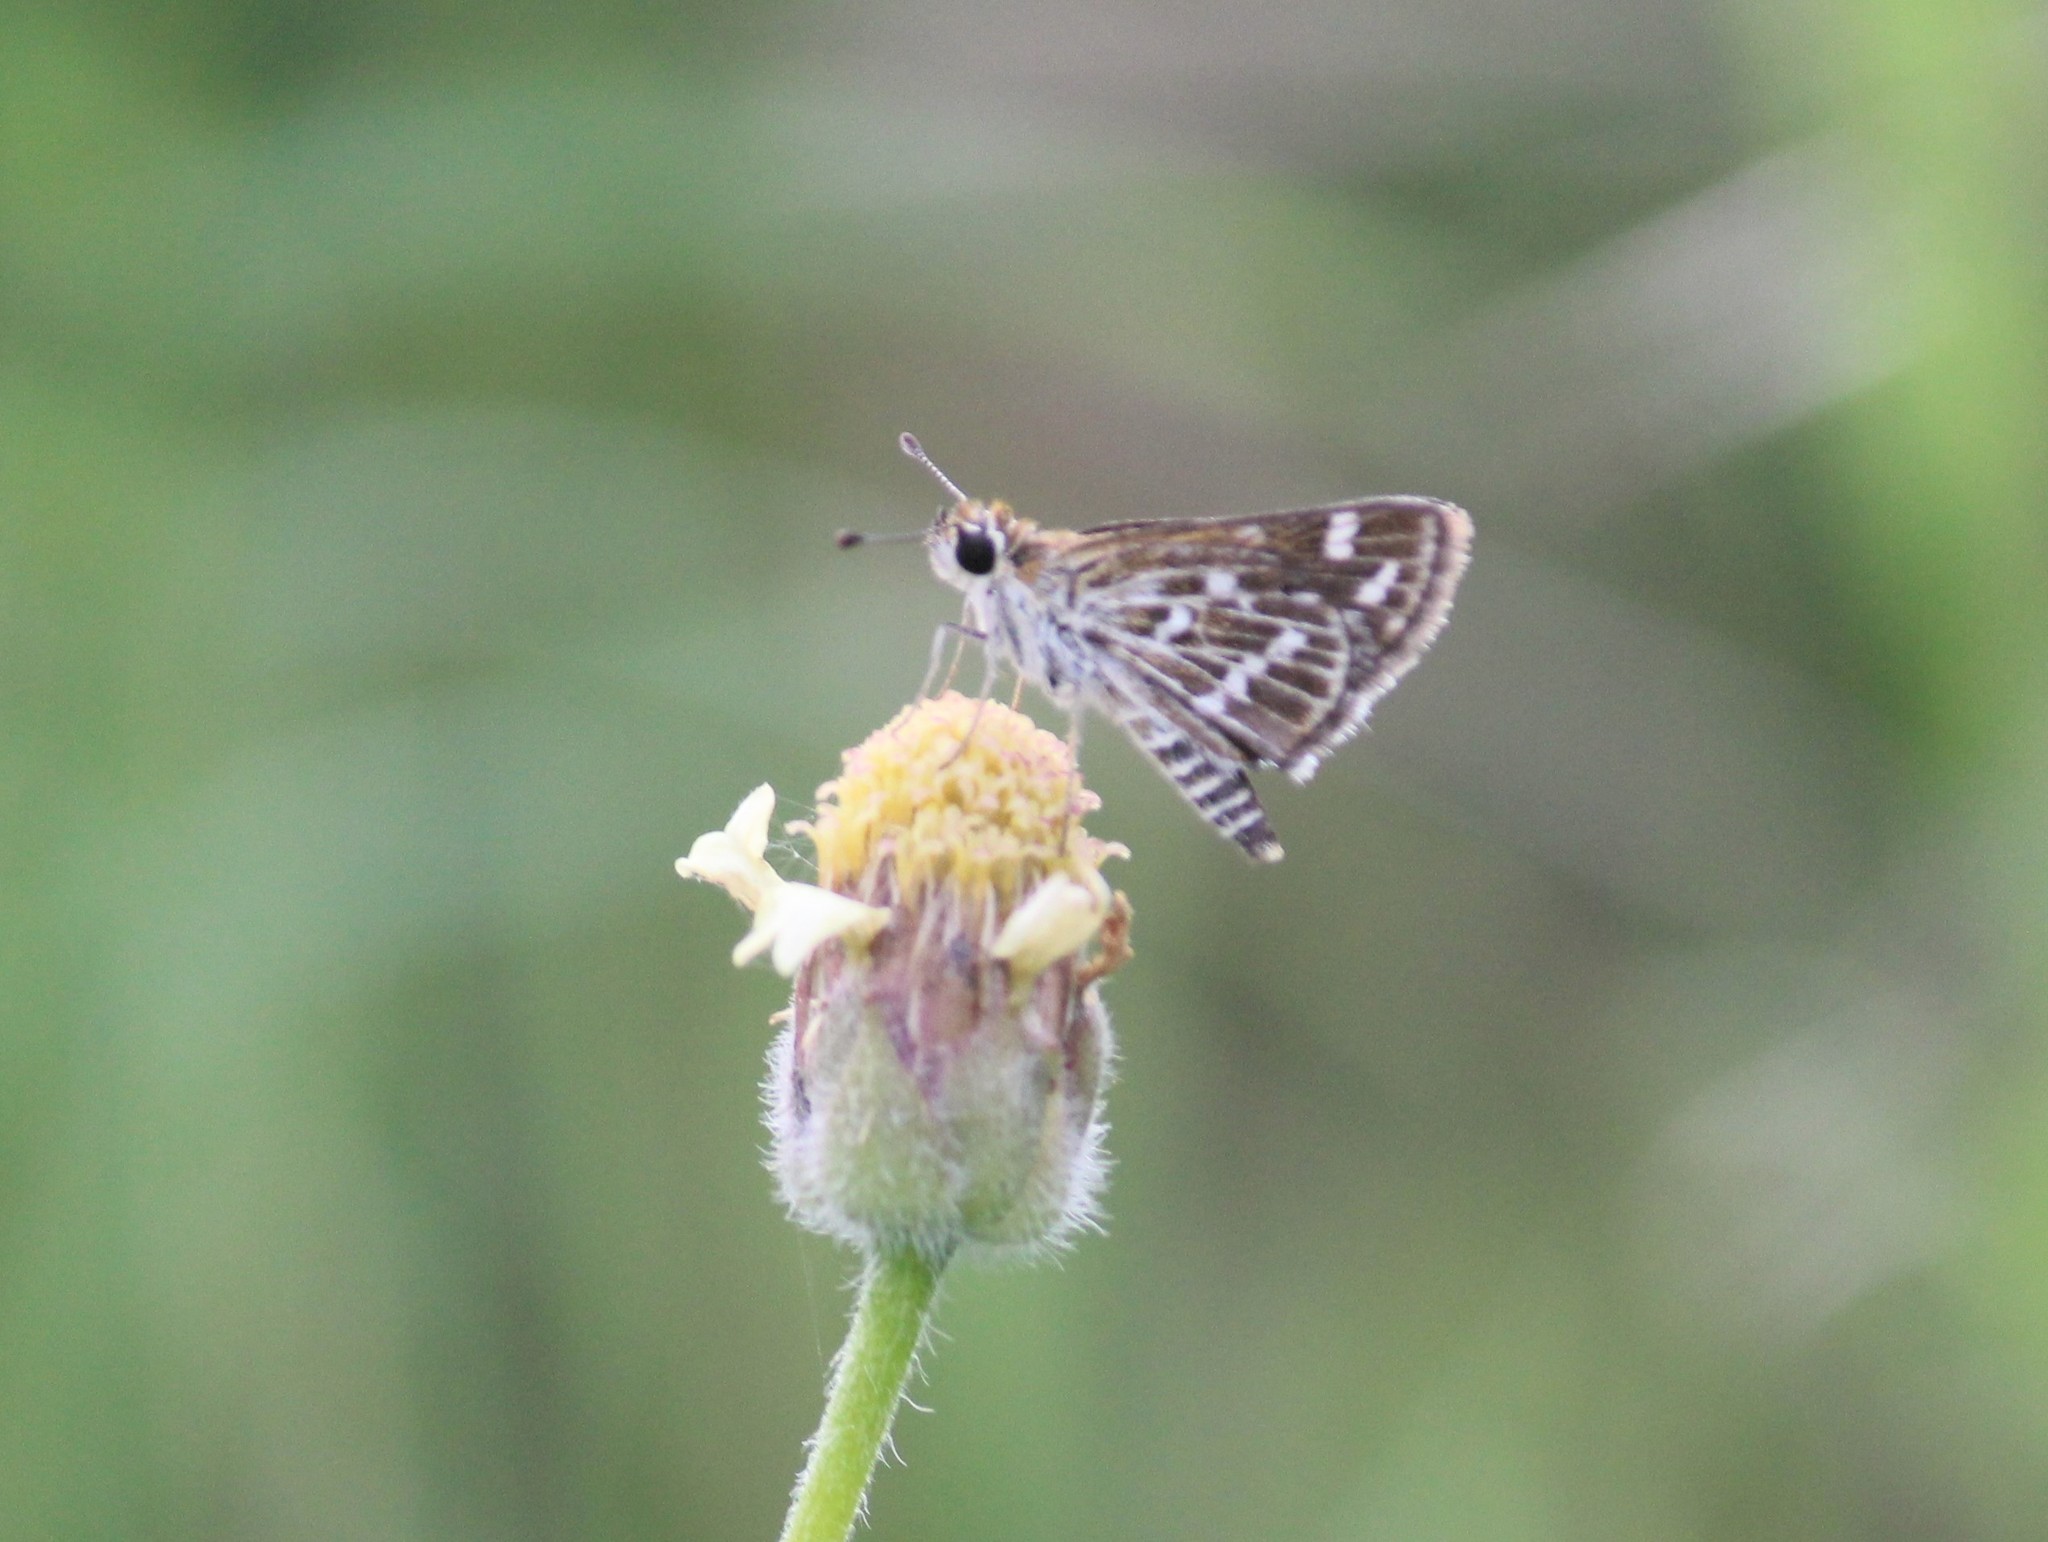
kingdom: Animalia
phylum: Arthropoda
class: Insecta
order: Lepidoptera
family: Hesperiidae
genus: Taractrocera
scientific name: Taractrocera maevius
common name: Common grass-dart
